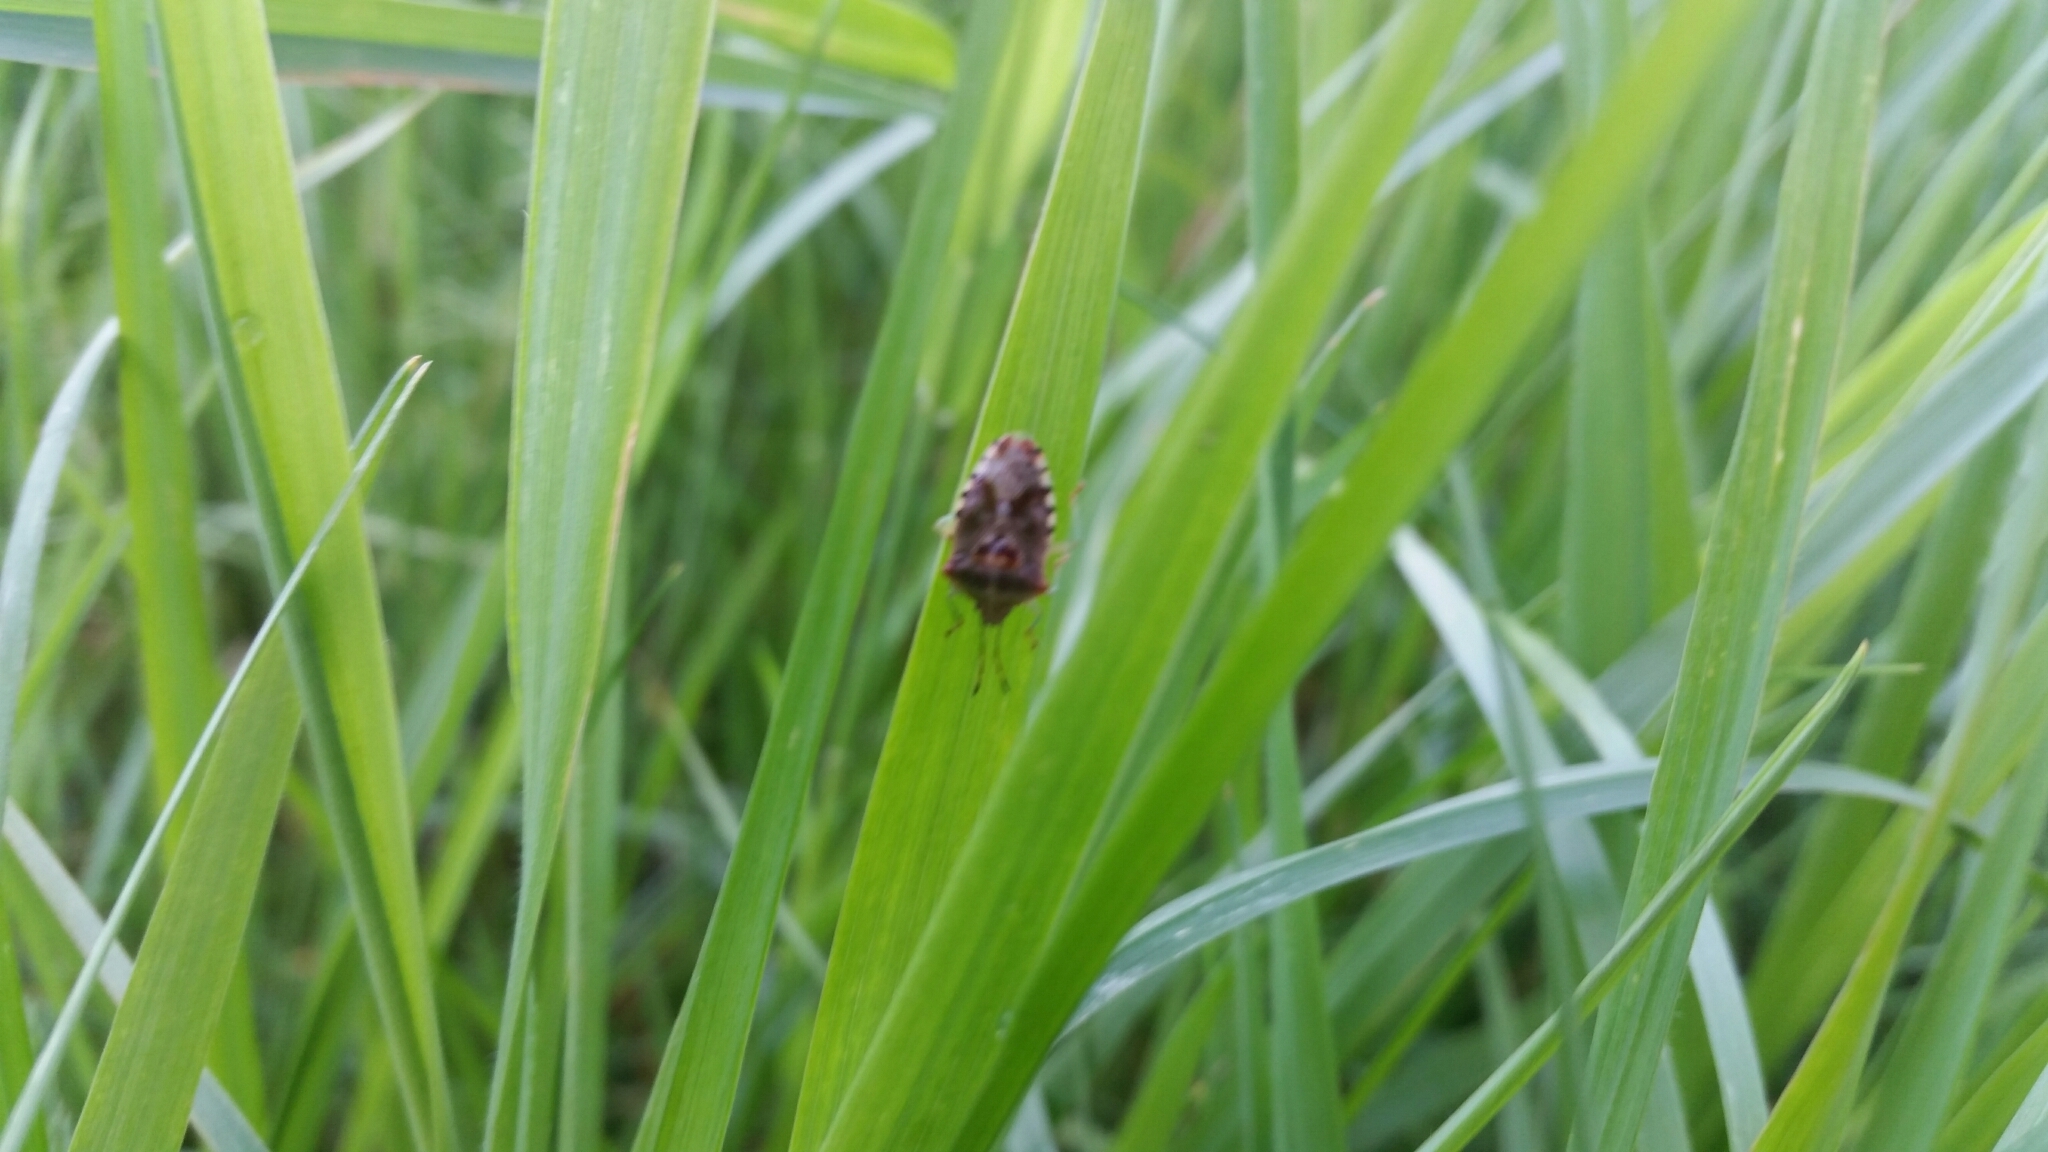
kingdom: Animalia
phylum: Arthropoda
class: Insecta
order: Hemiptera
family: Acanthosomatidae
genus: Elasmucha
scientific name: Elasmucha grisea
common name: Parent bug
